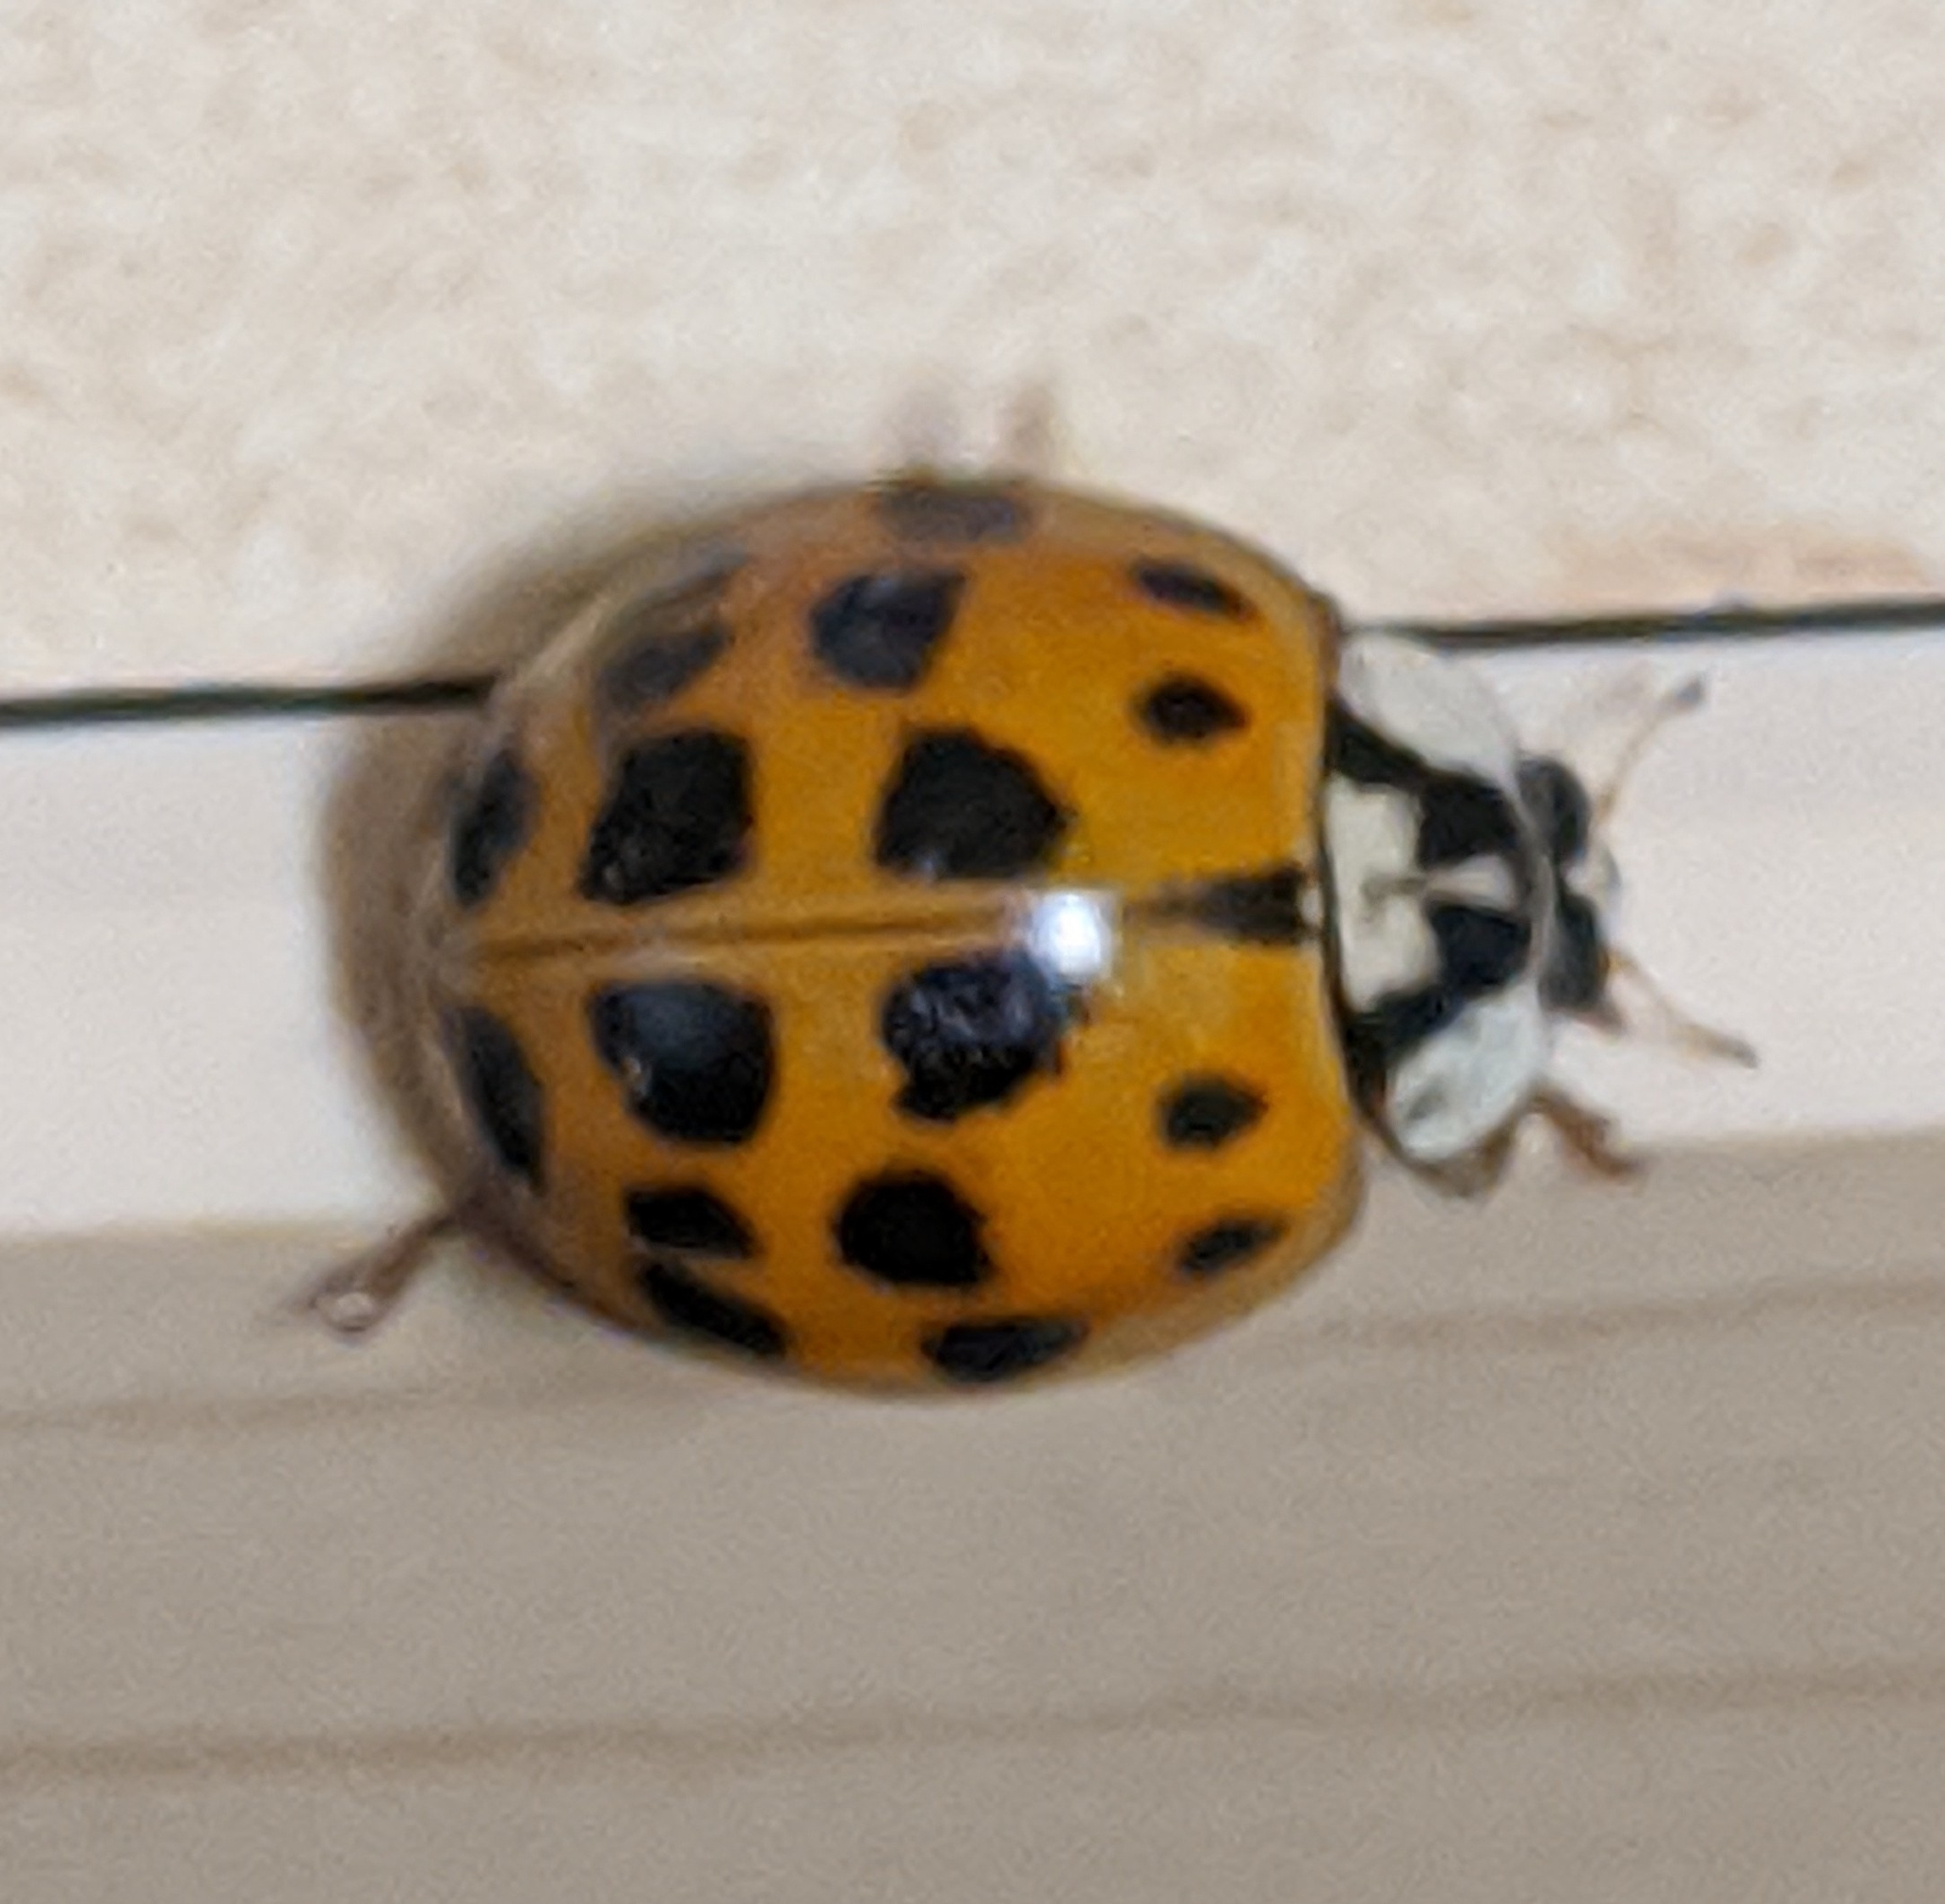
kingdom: Animalia
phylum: Arthropoda
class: Insecta
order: Coleoptera
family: Coccinellidae
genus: Harmonia
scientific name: Harmonia axyridis
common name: Harlequin ladybird
